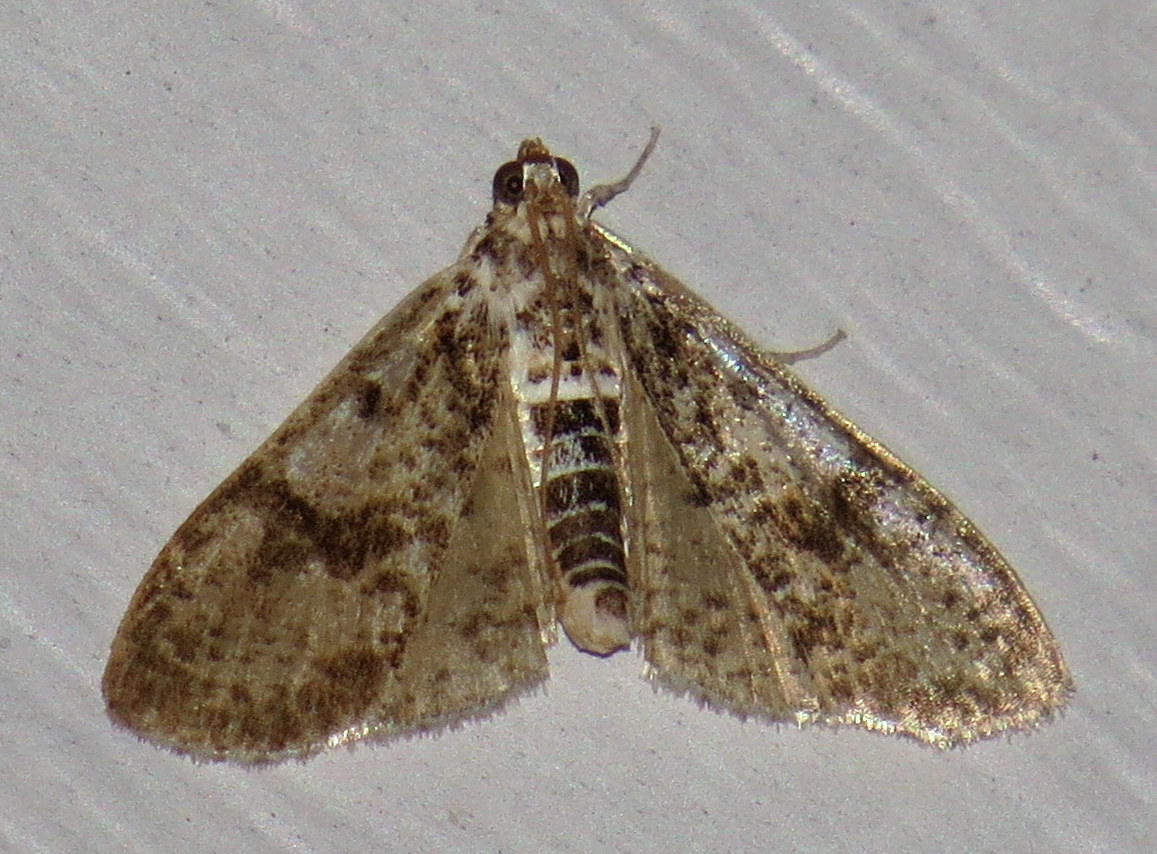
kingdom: Animalia
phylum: Arthropoda
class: Insecta
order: Lepidoptera
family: Crambidae
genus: Palpita
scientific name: Palpita magniferalis
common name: Splendid palpita moth
